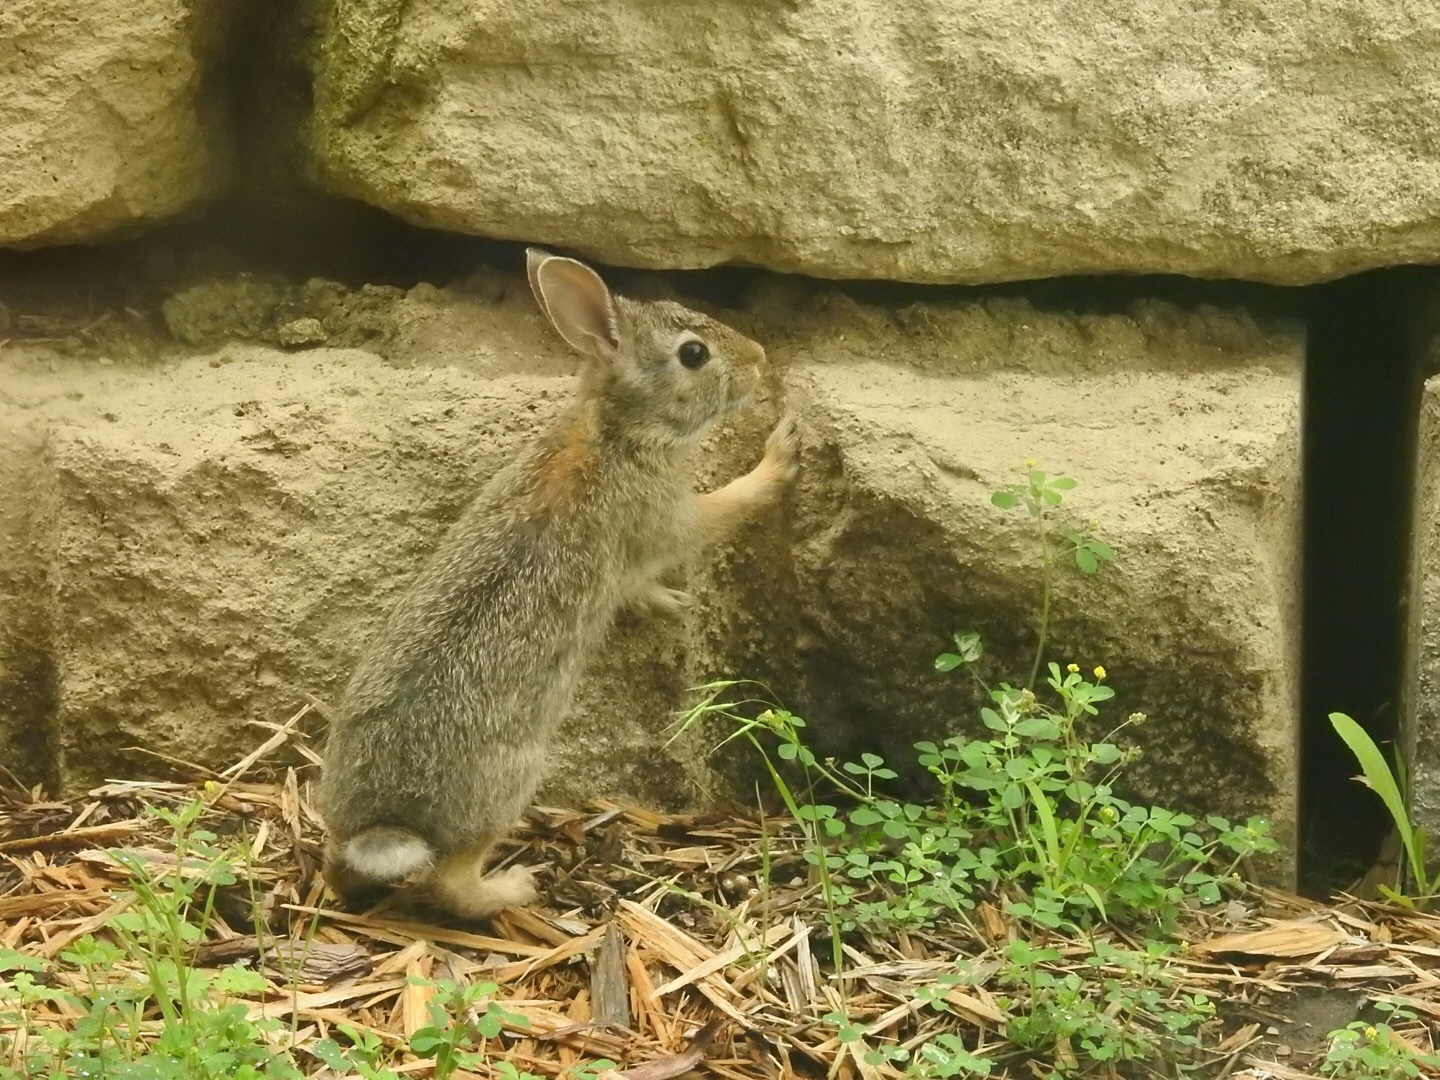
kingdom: Animalia
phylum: Chordata
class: Mammalia
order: Lagomorpha
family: Leporidae
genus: Sylvilagus
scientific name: Sylvilagus floridanus
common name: Eastern cottontail
